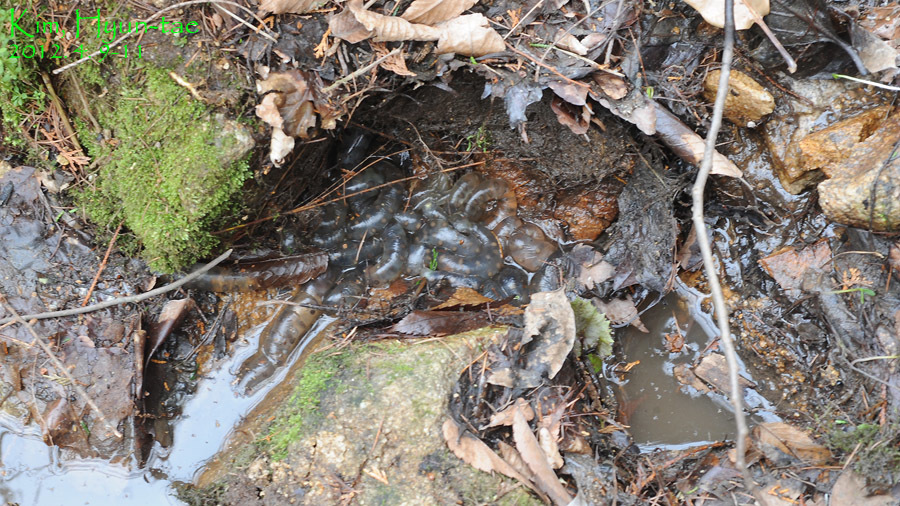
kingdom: Animalia
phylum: Chordata
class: Amphibia
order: Caudata
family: Hynobiidae
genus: Hynobius
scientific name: Hynobius quelpaertensis
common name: Cheju salamander
